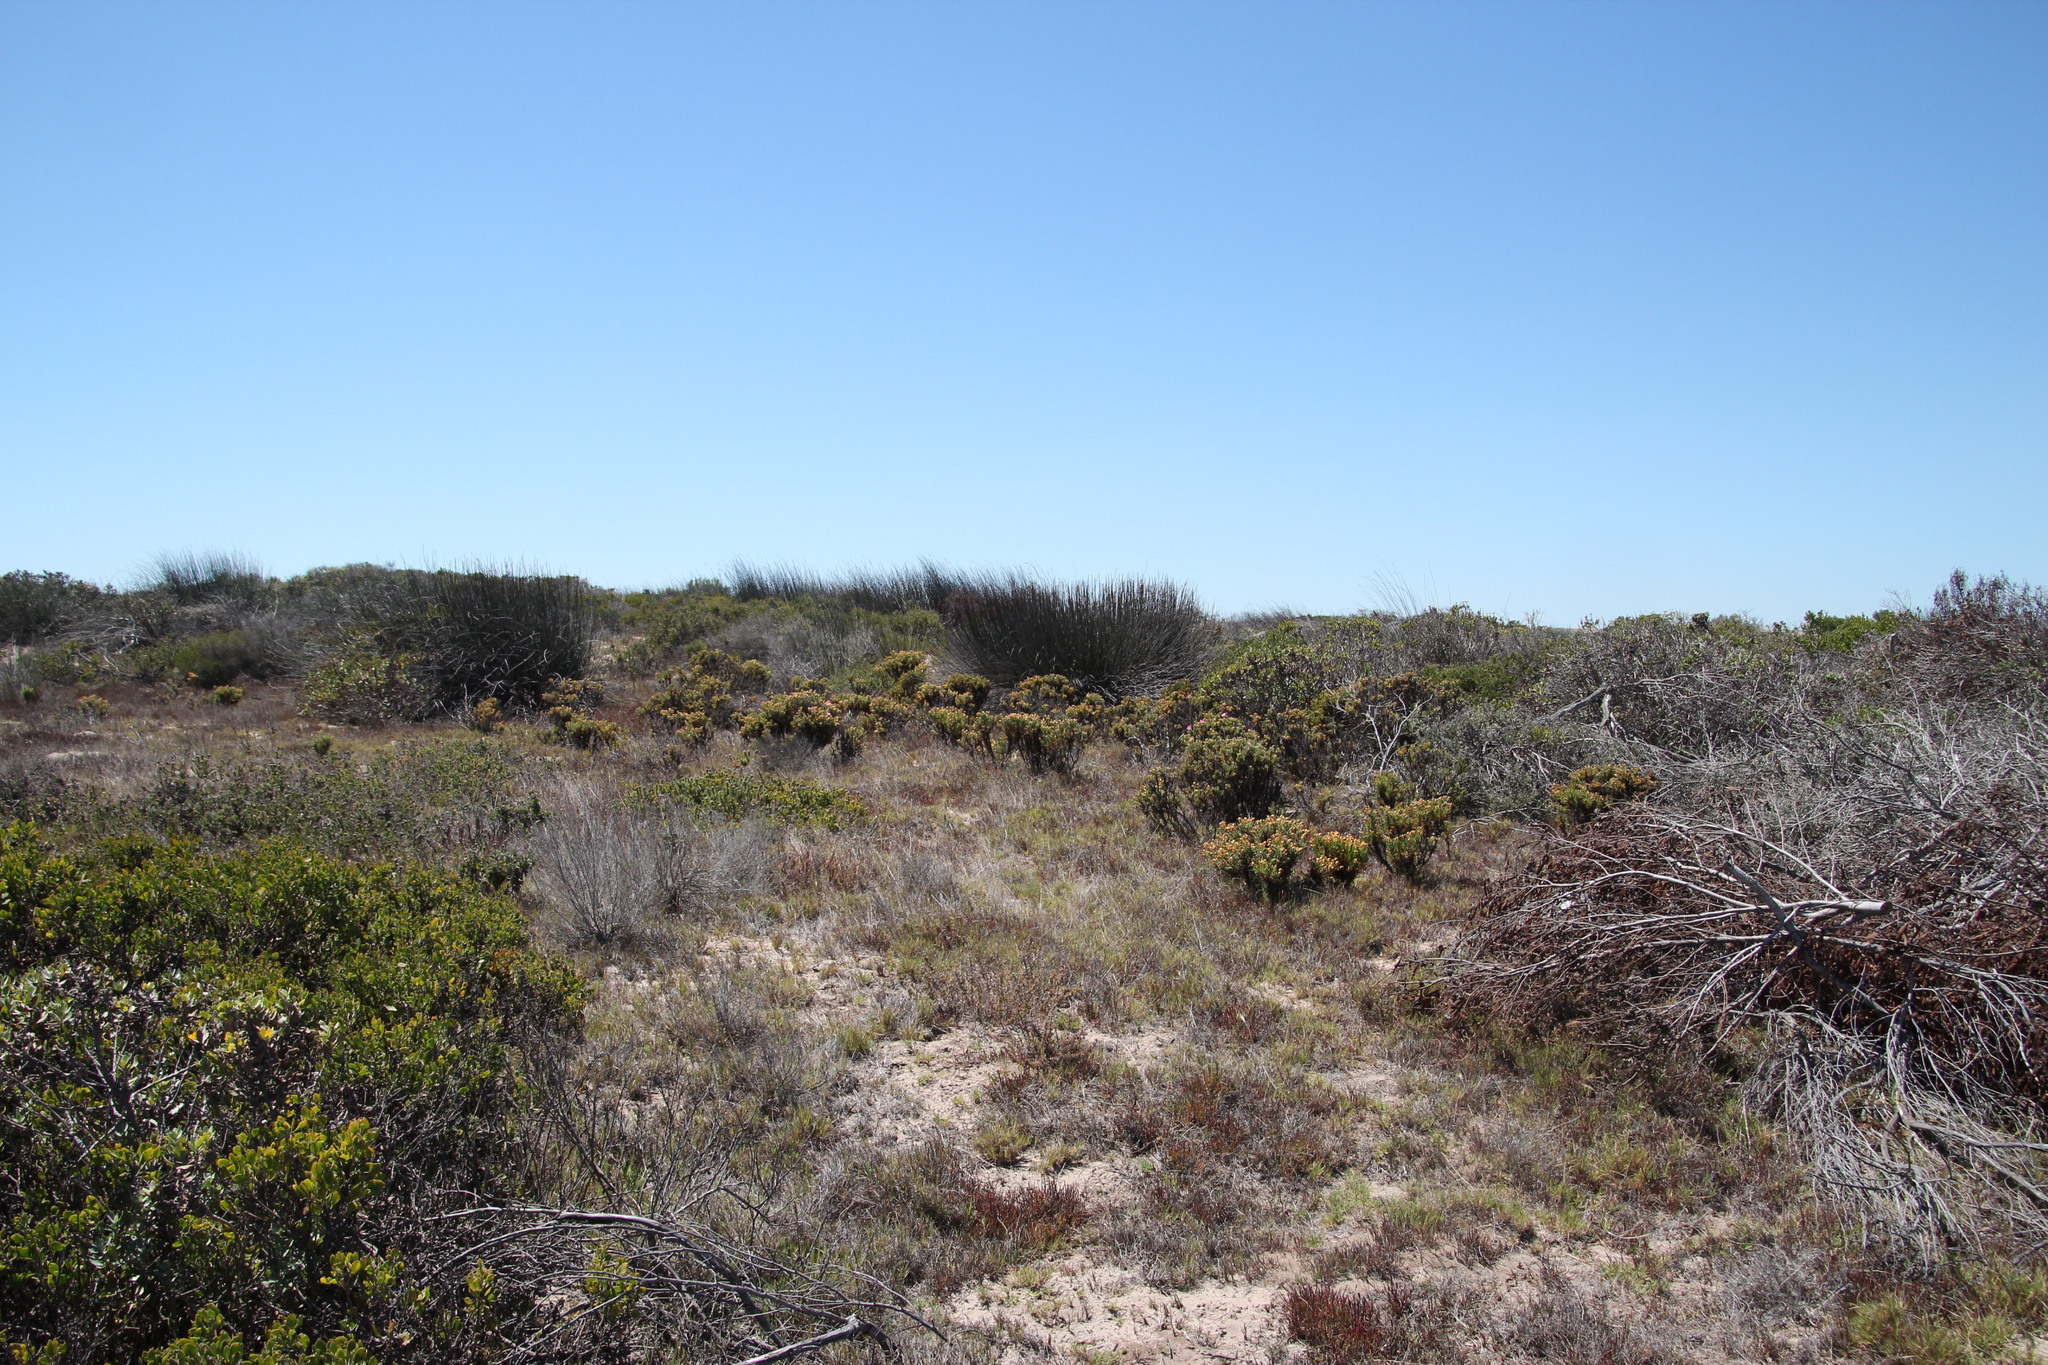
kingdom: Plantae
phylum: Tracheophyta
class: Magnoliopsida
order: Gentianales
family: Gentianaceae
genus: Orphium
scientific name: Orphium frutescens
